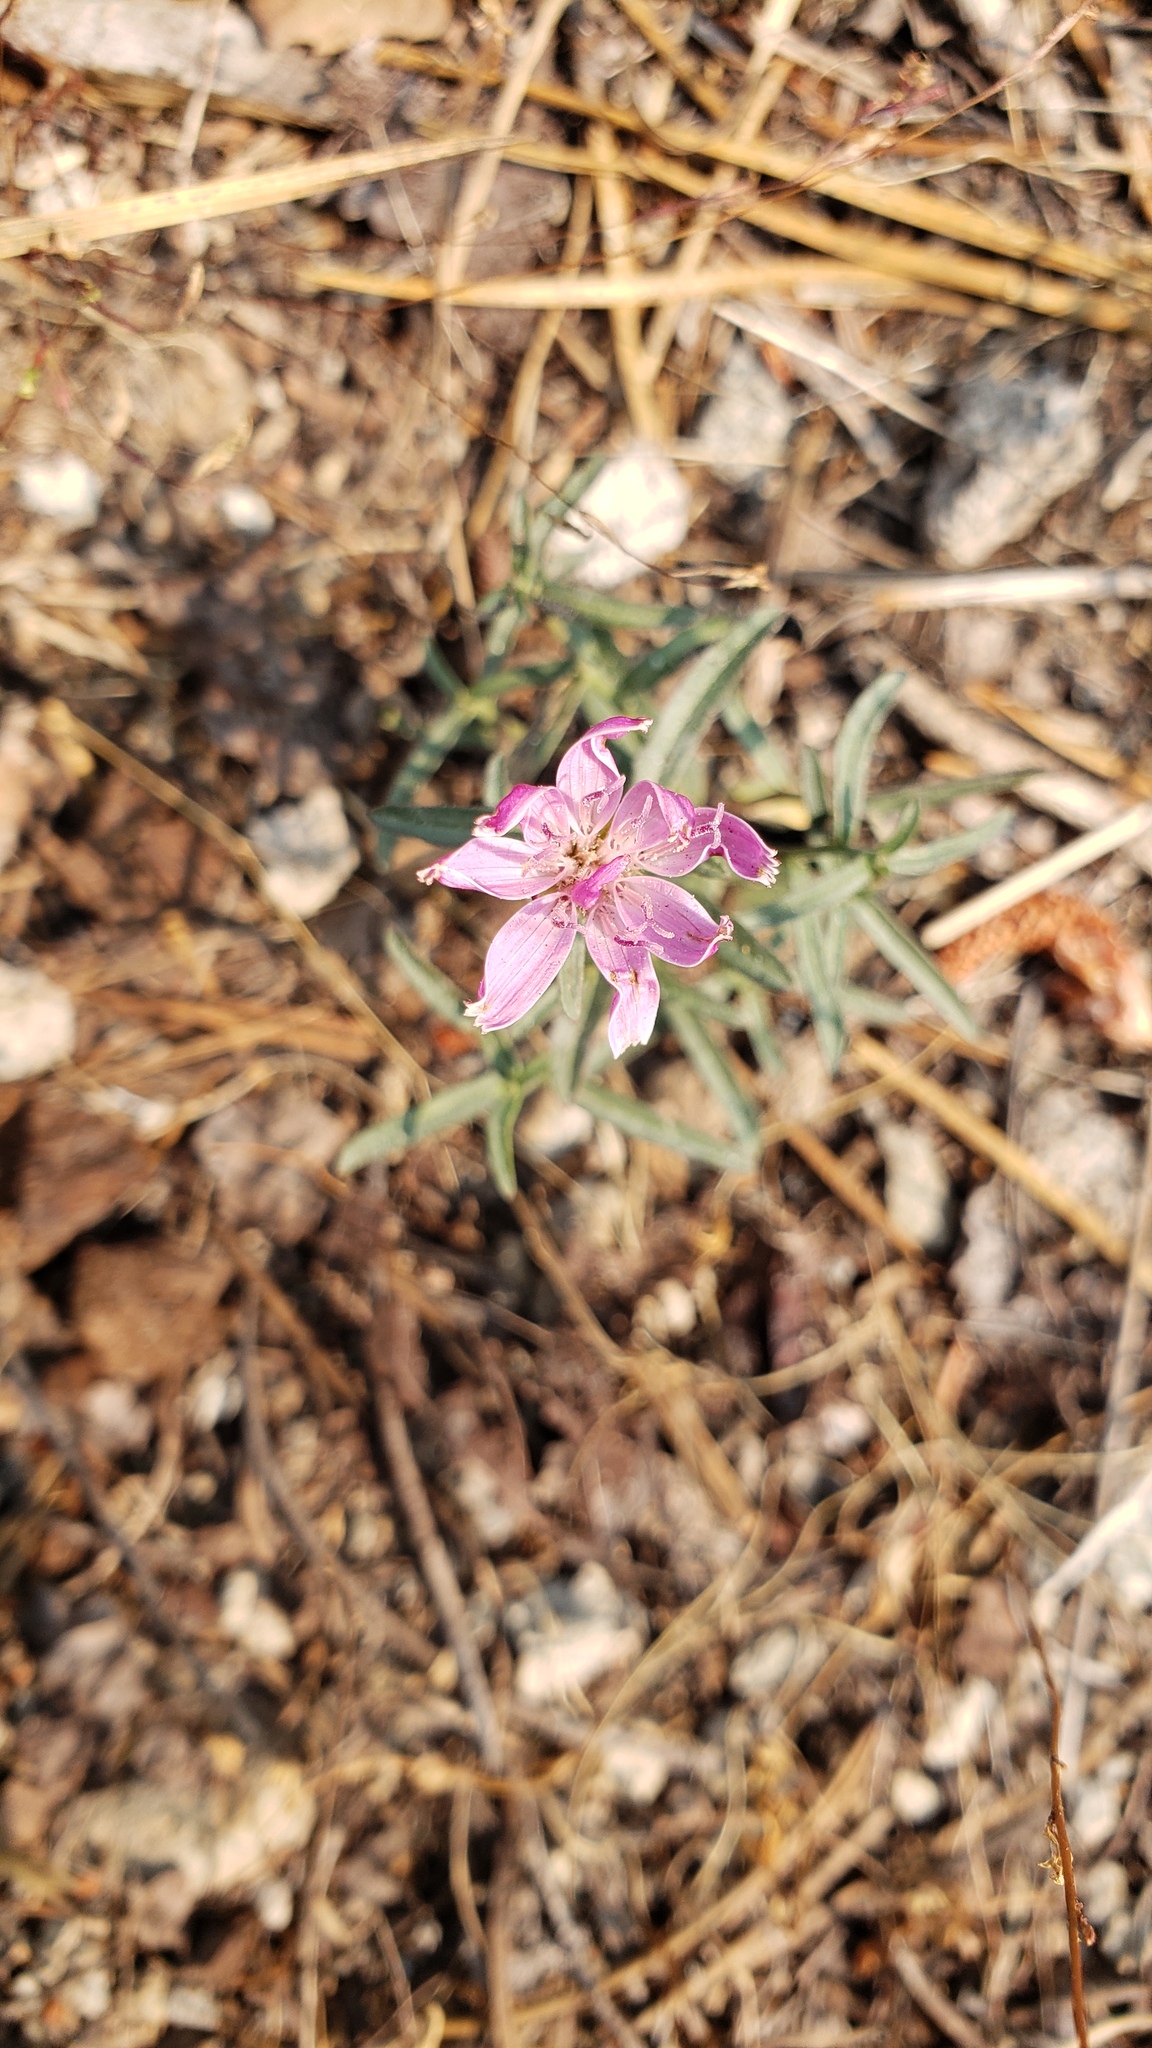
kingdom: Plantae
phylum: Tracheophyta
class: Magnoliopsida
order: Asterales
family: Asteraceae
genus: Stephanomeria
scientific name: Stephanomeria lactucina
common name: Large-flowered wirelettuce
